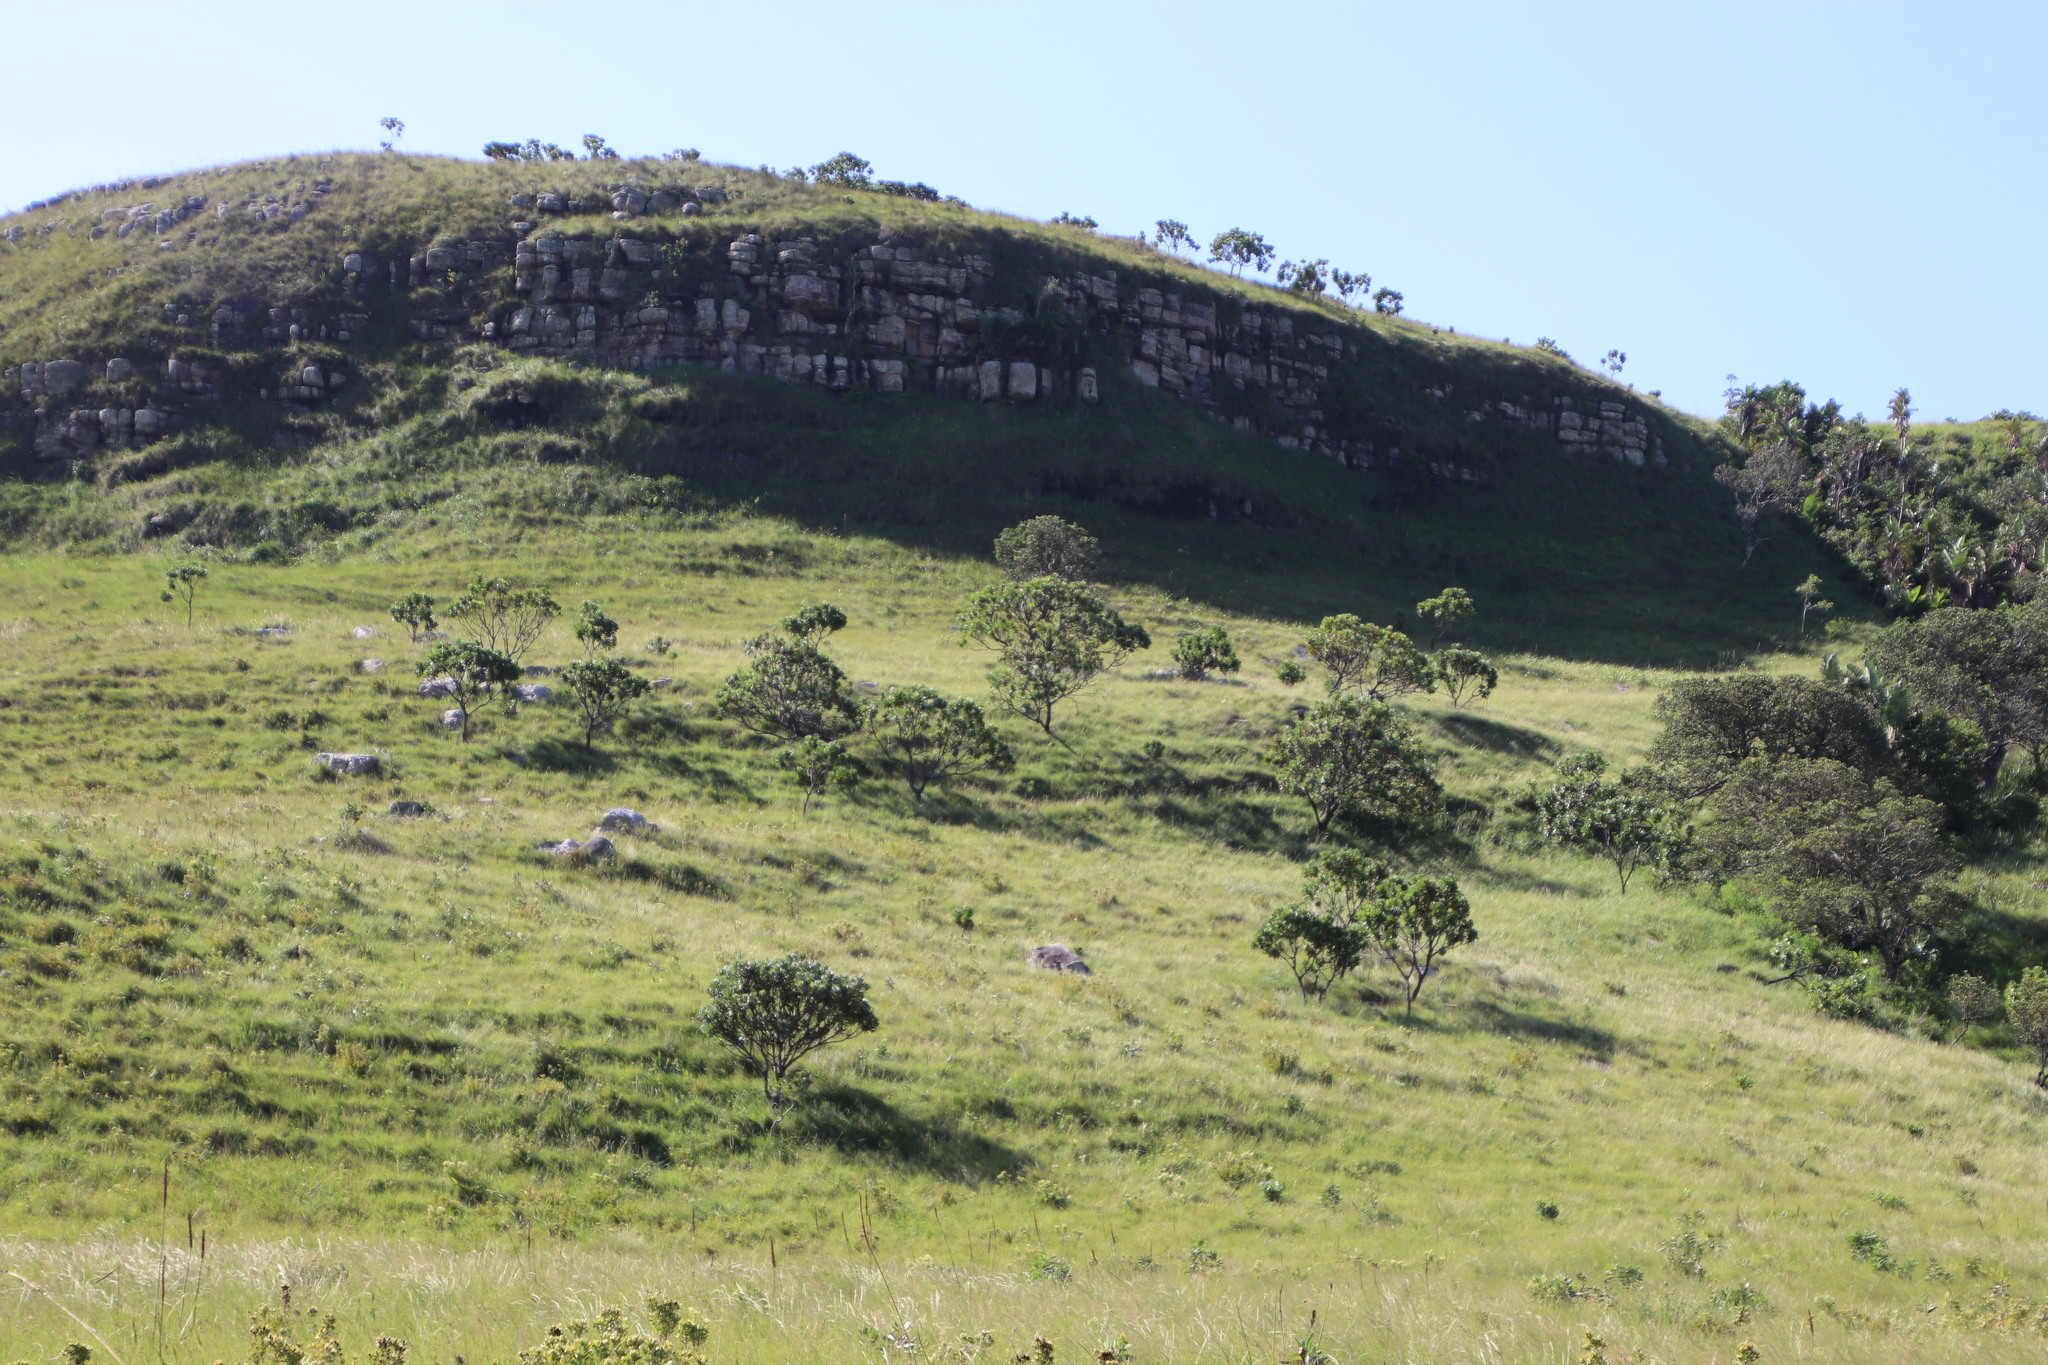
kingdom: Plantae
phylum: Tracheophyta
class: Magnoliopsida
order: Proteales
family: Proteaceae
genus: Protea
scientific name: Protea roupelliae
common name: Silver sugarbush
